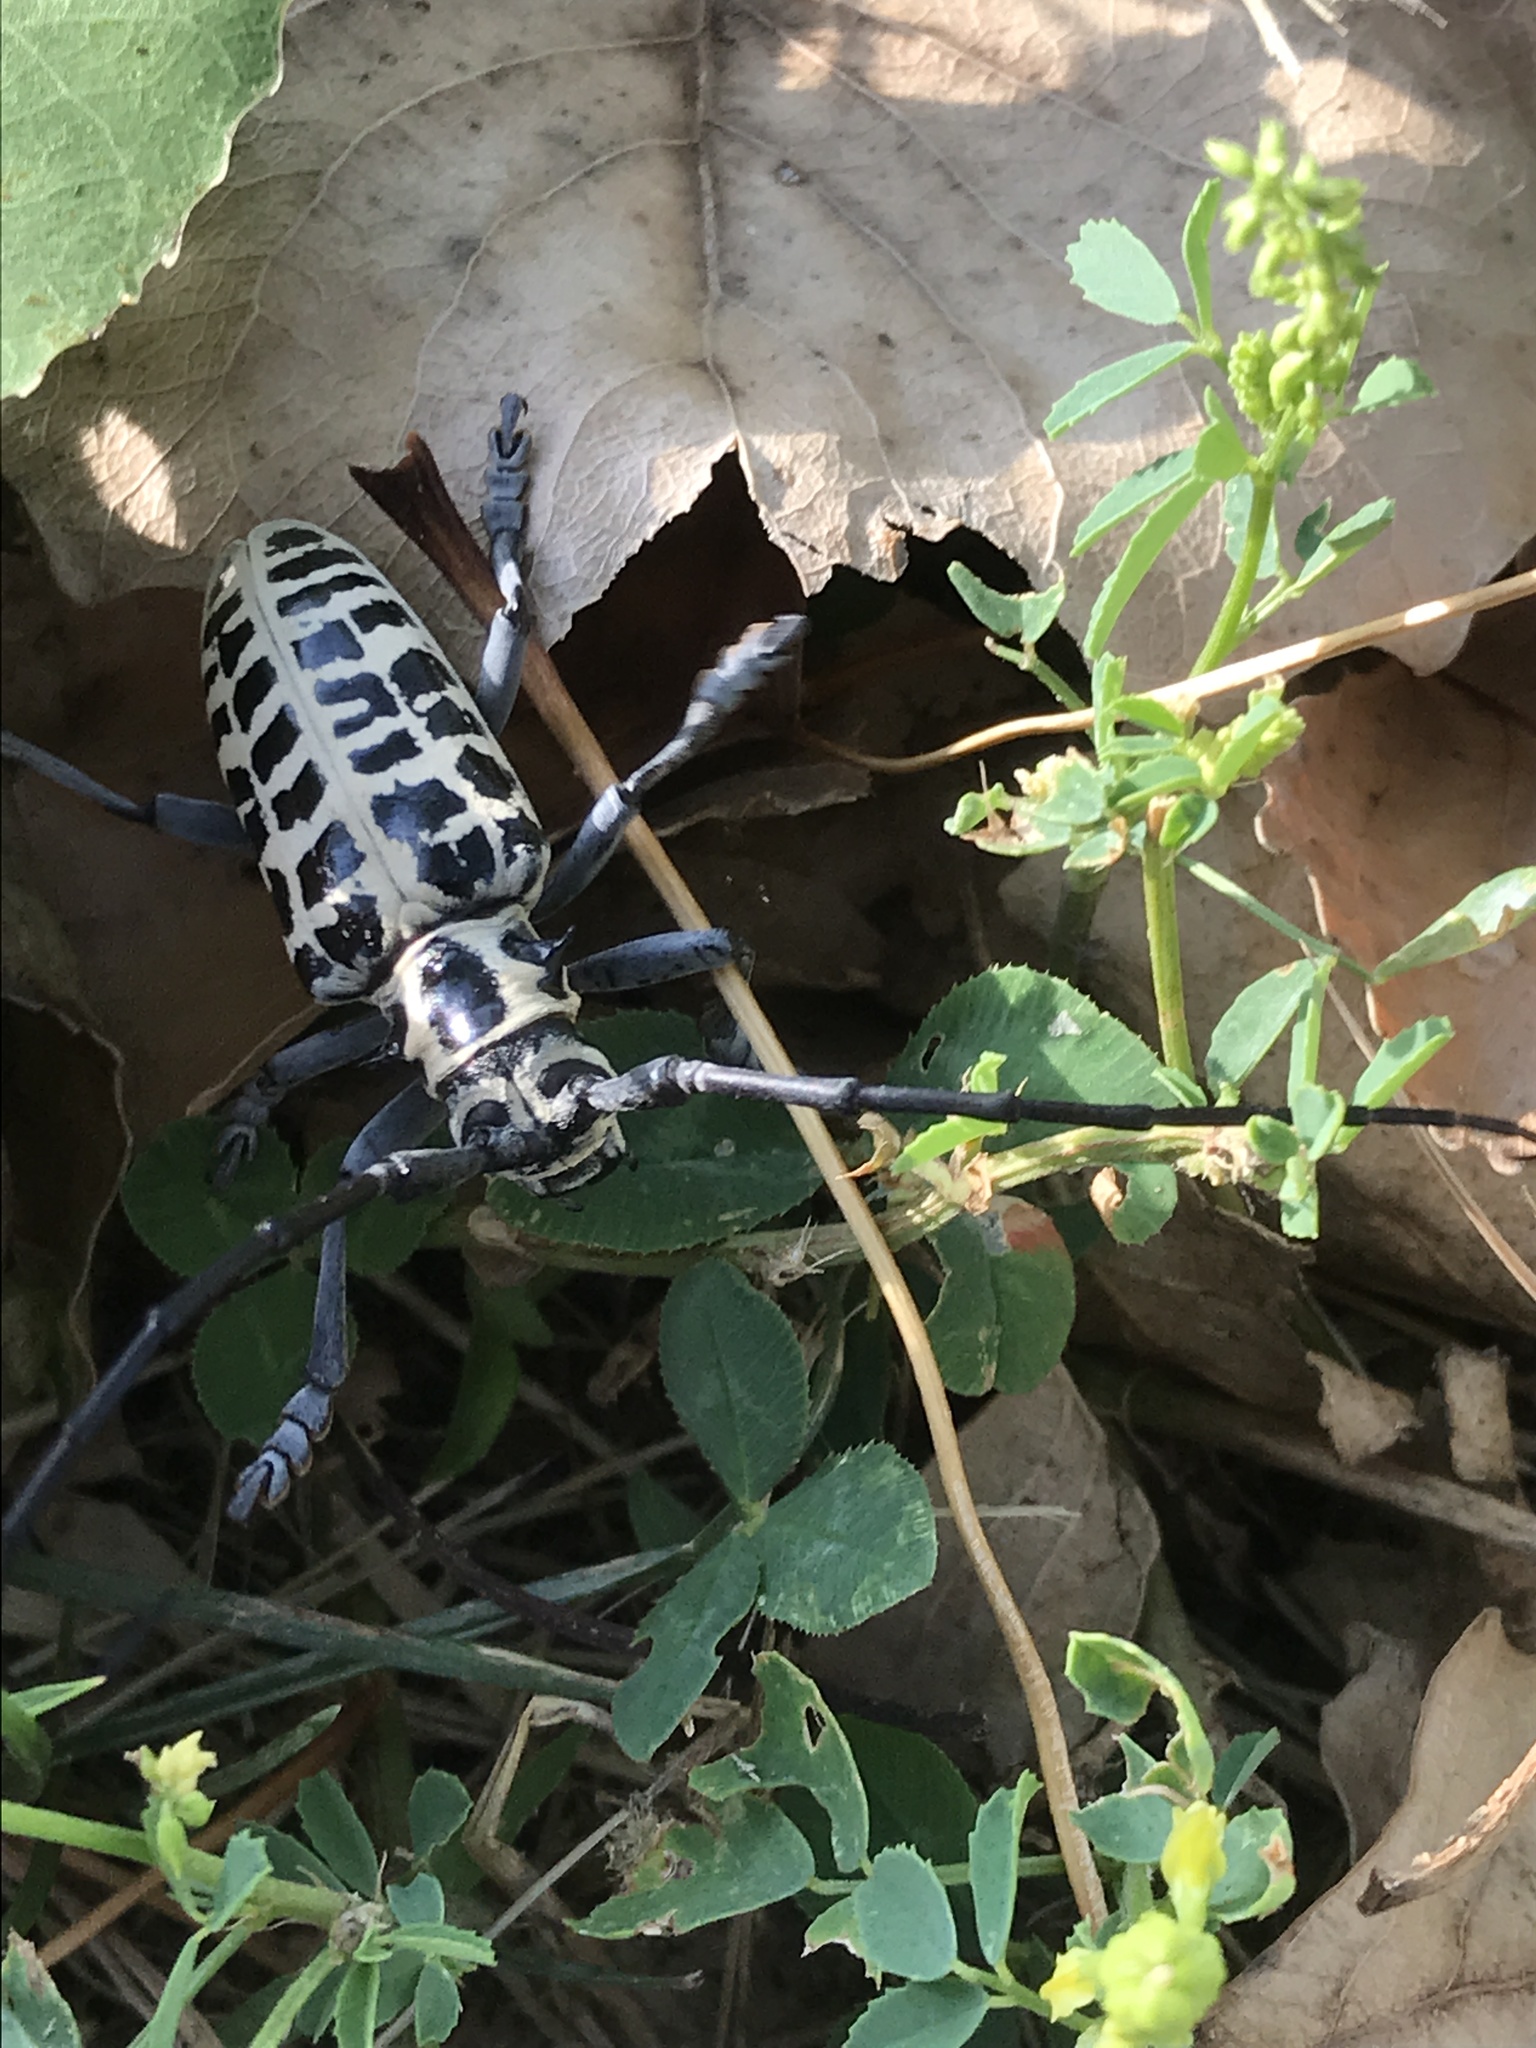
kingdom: Animalia
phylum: Arthropoda
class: Insecta
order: Coleoptera
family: Cerambycidae
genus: Plectrodera
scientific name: Plectrodera scalator
